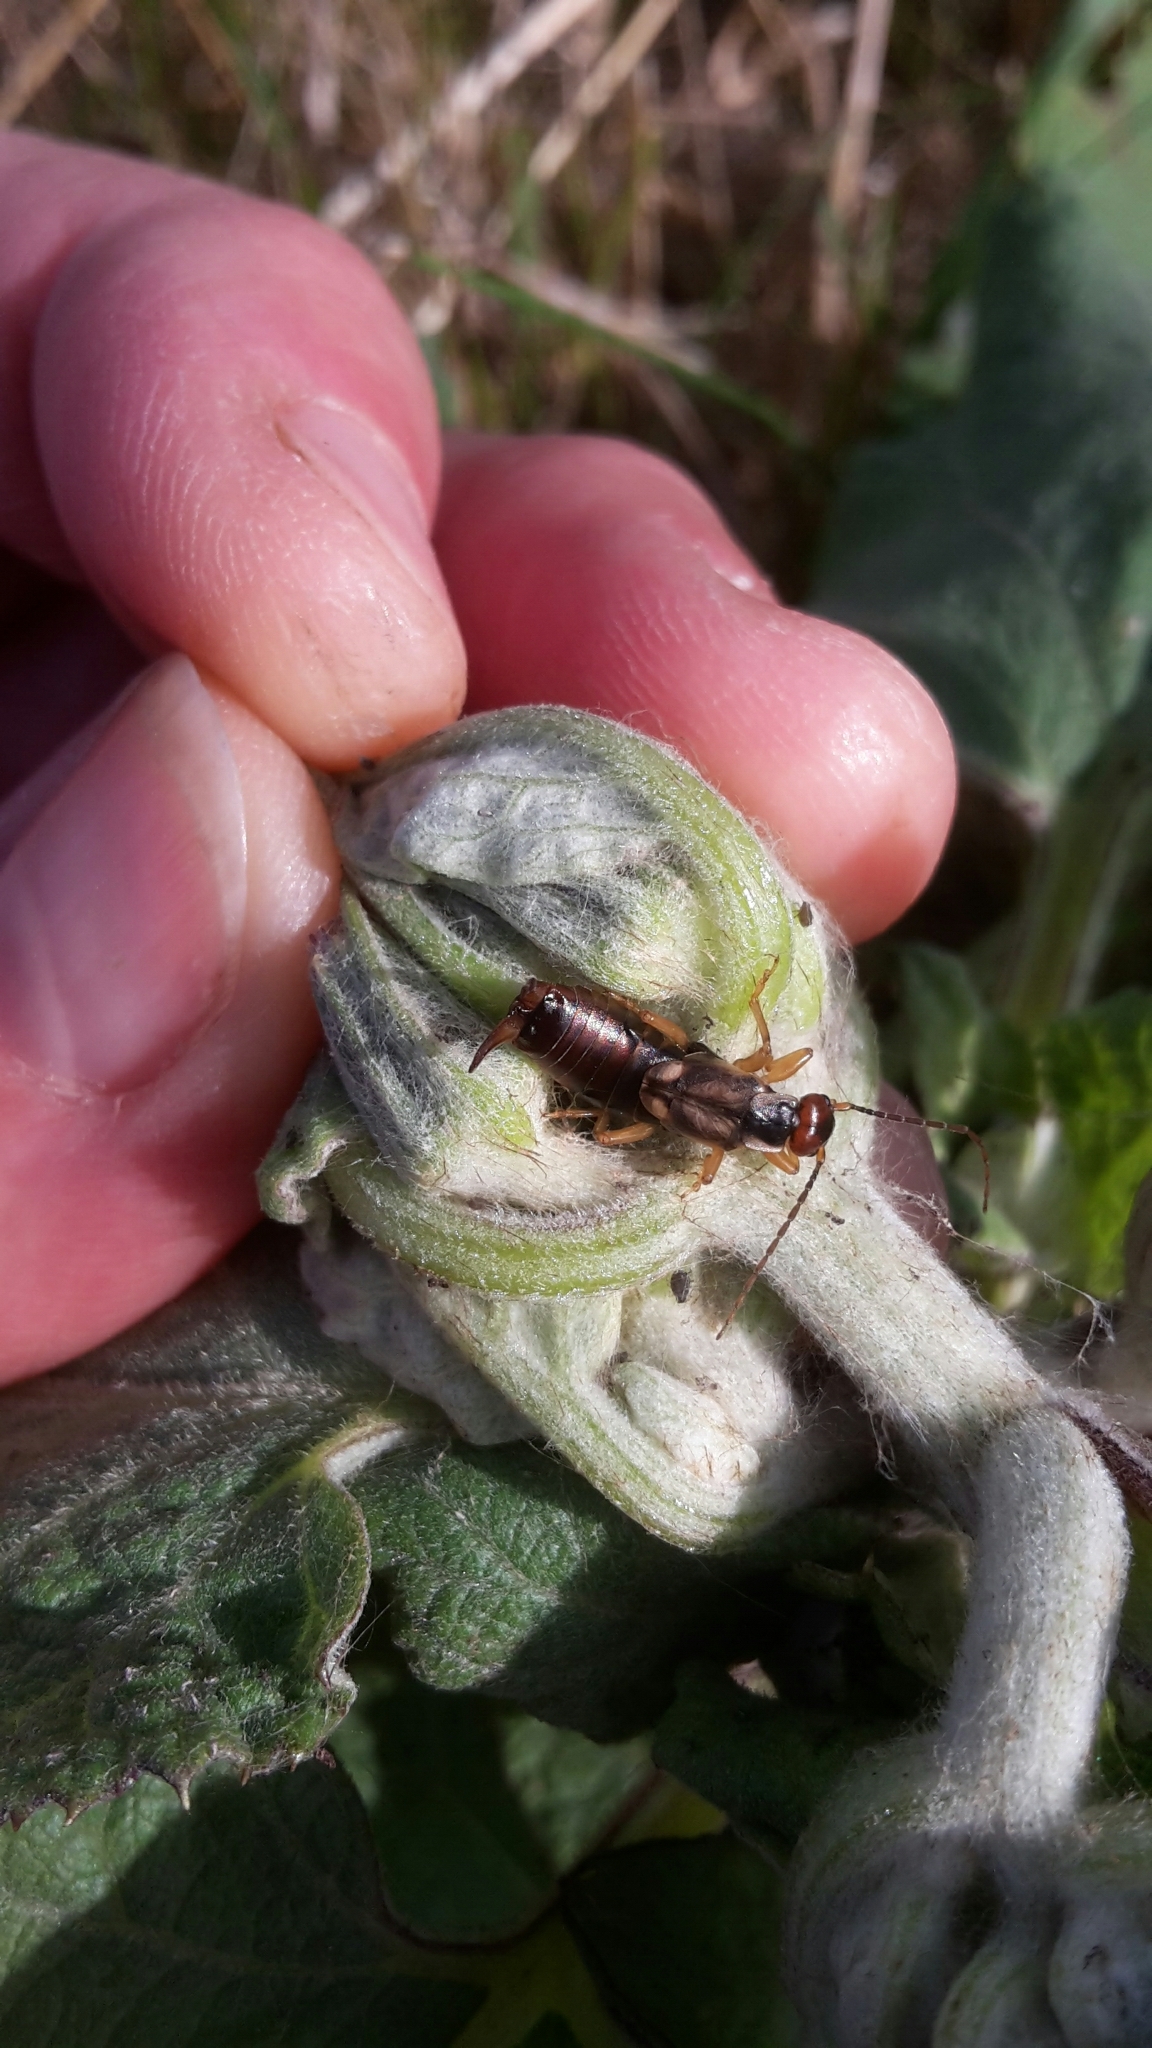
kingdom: Animalia
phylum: Arthropoda
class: Insecta
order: Dermaptera
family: Forficulidae
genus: Forficula
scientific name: Forficula
